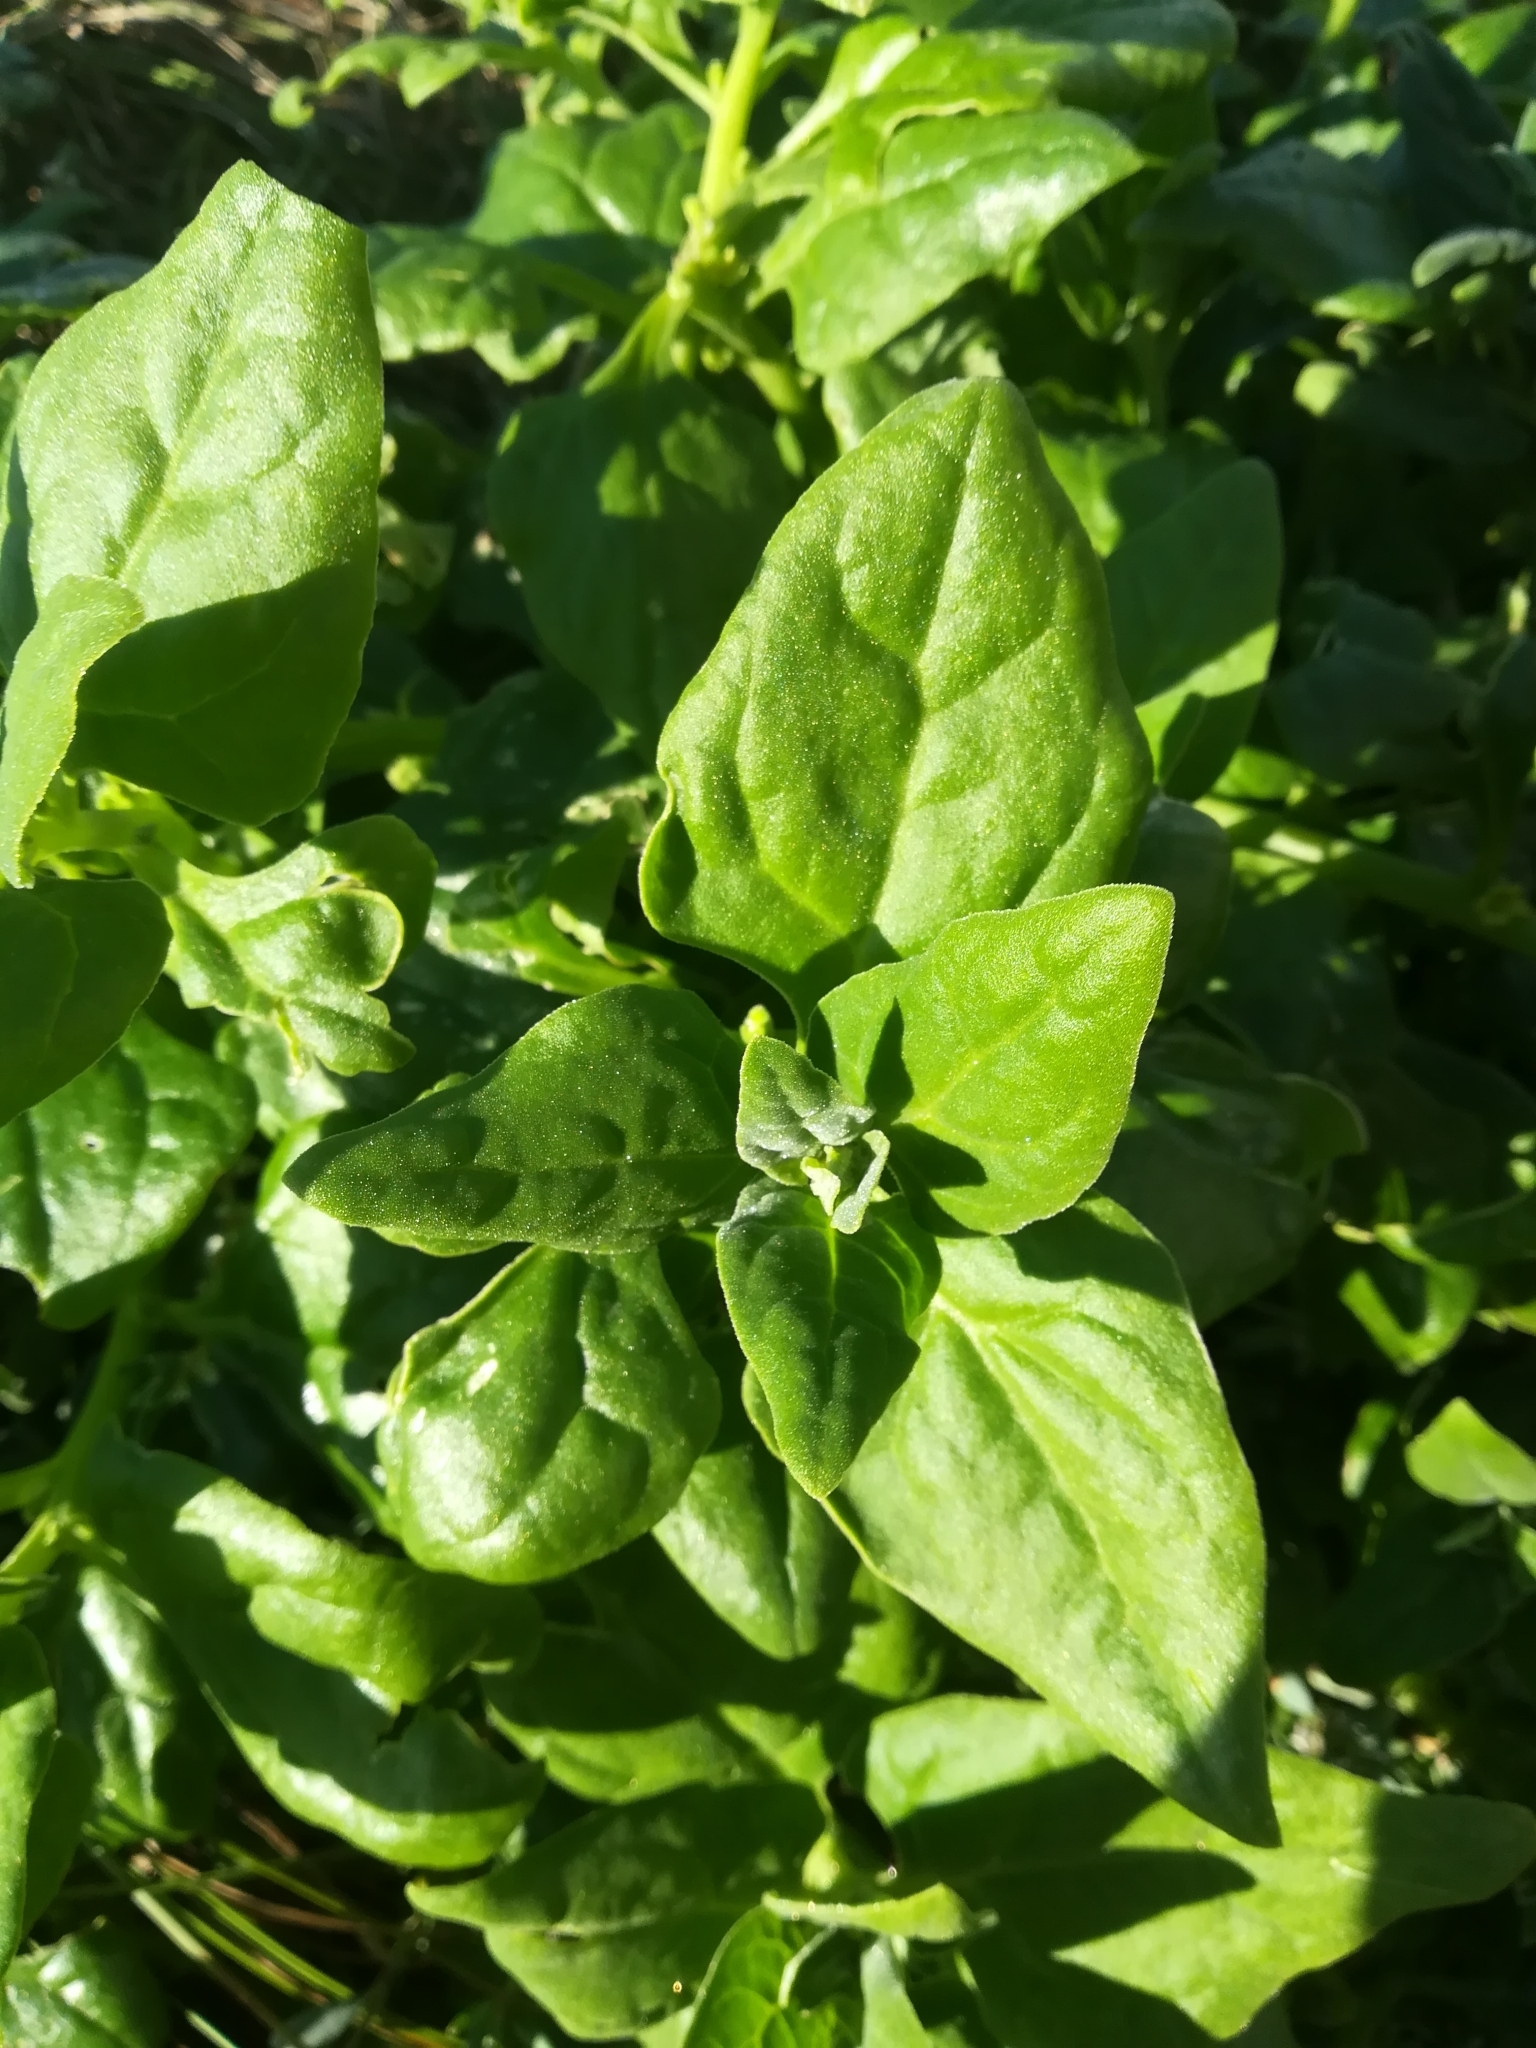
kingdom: Plantae
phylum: Tracheophyta
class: Magnoliopsida
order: Caryophyllales
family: Aizoaceae
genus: Tetragonia
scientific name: Tetragonia tetragonoides
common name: New zealand-spinach
